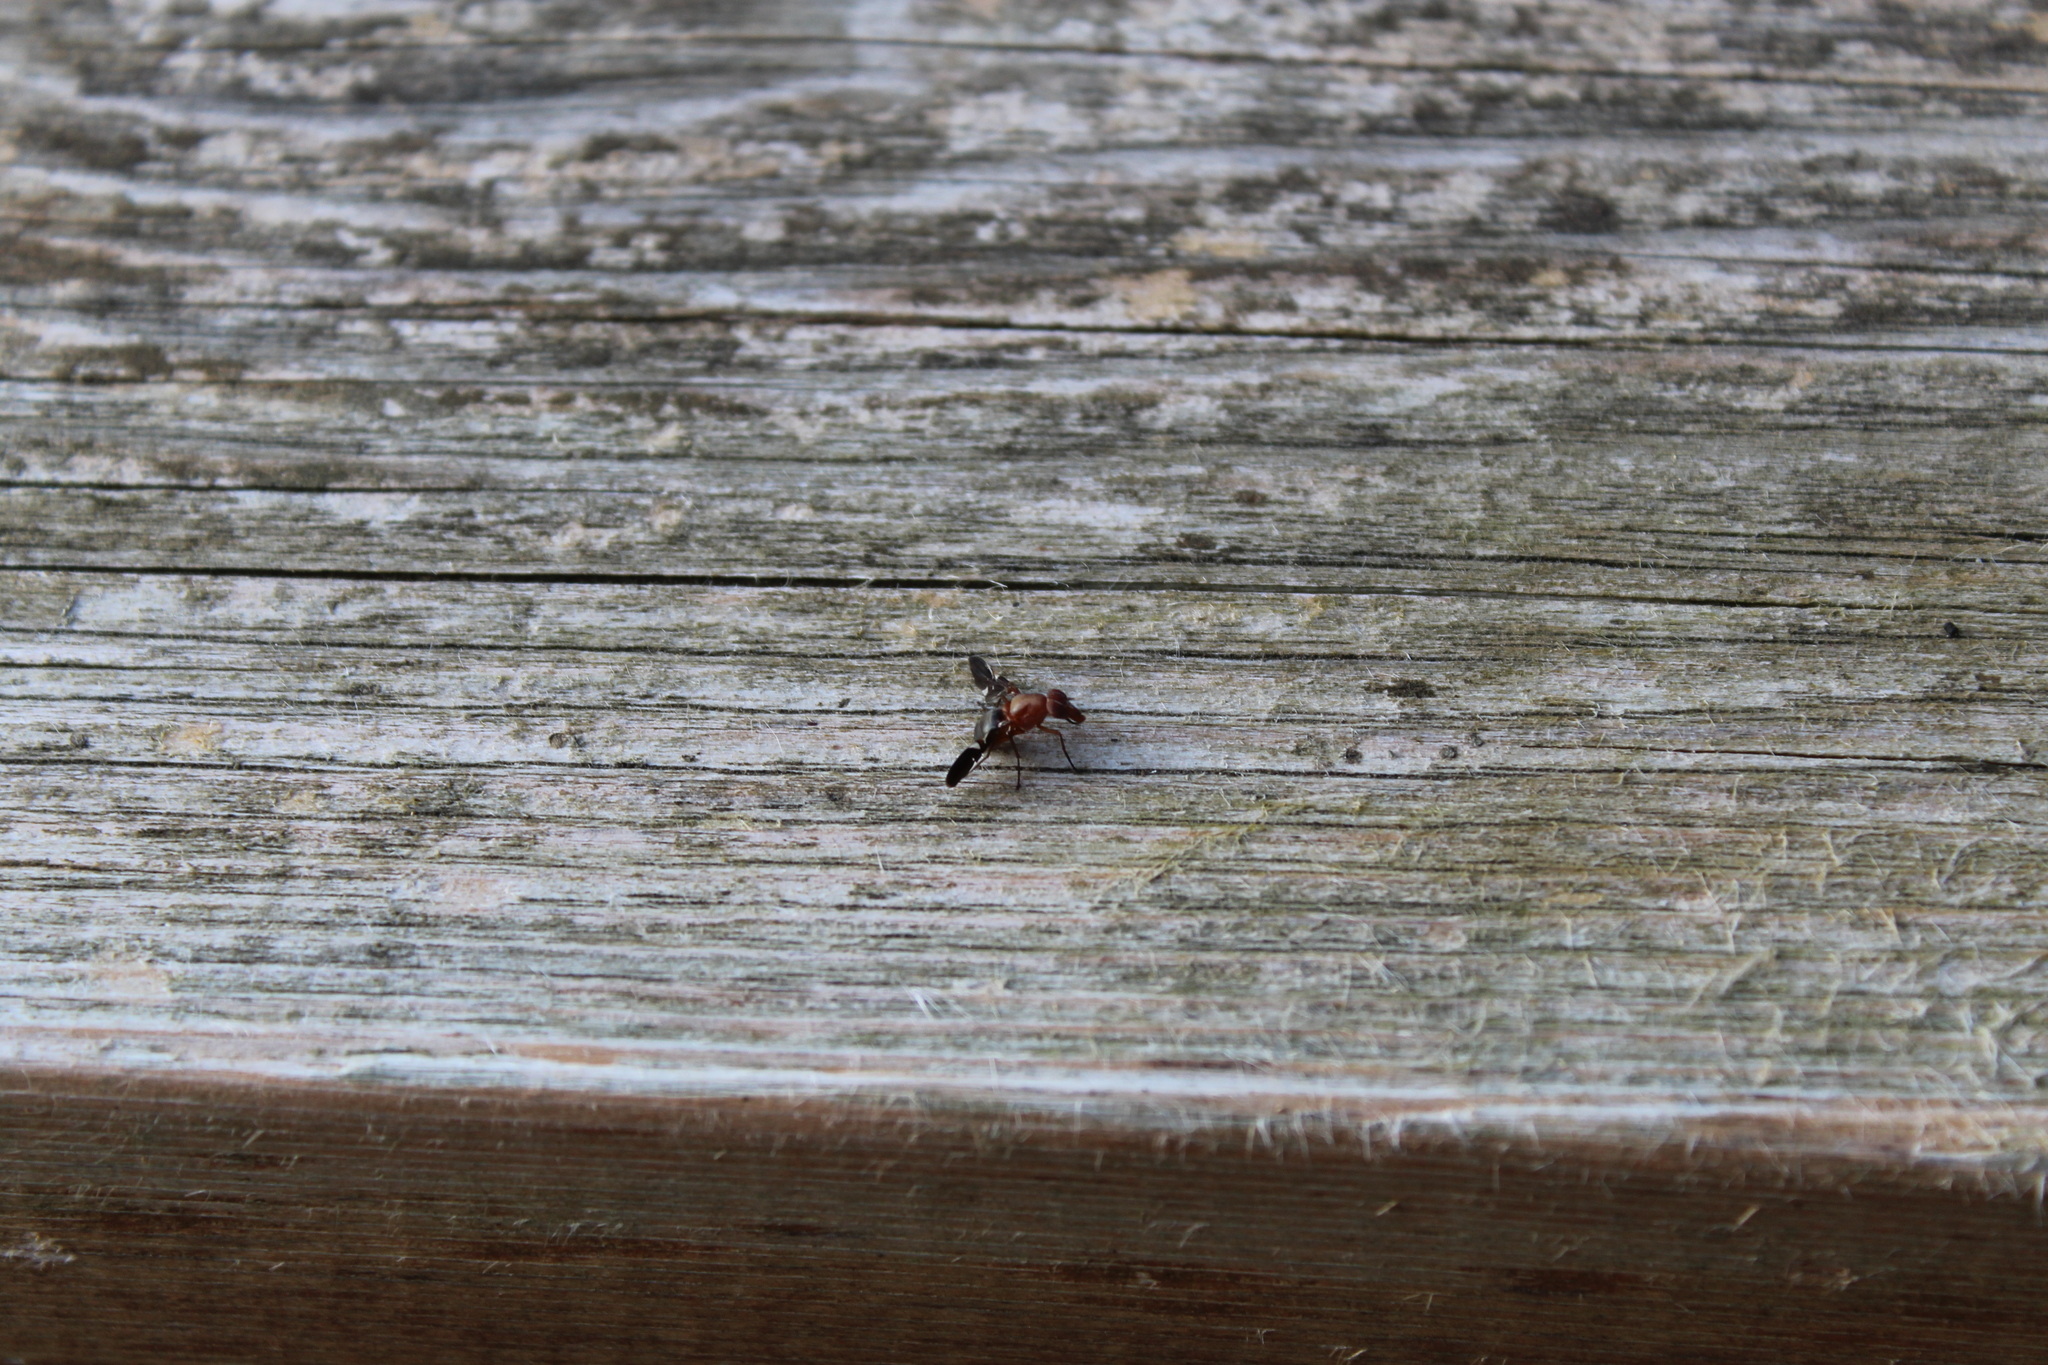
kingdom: Animalia
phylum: Arthropoda
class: Insecta
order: Diptera
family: Ulidiidae
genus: Delphinia
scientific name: Delphinia picta
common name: Common picture-winged fly
